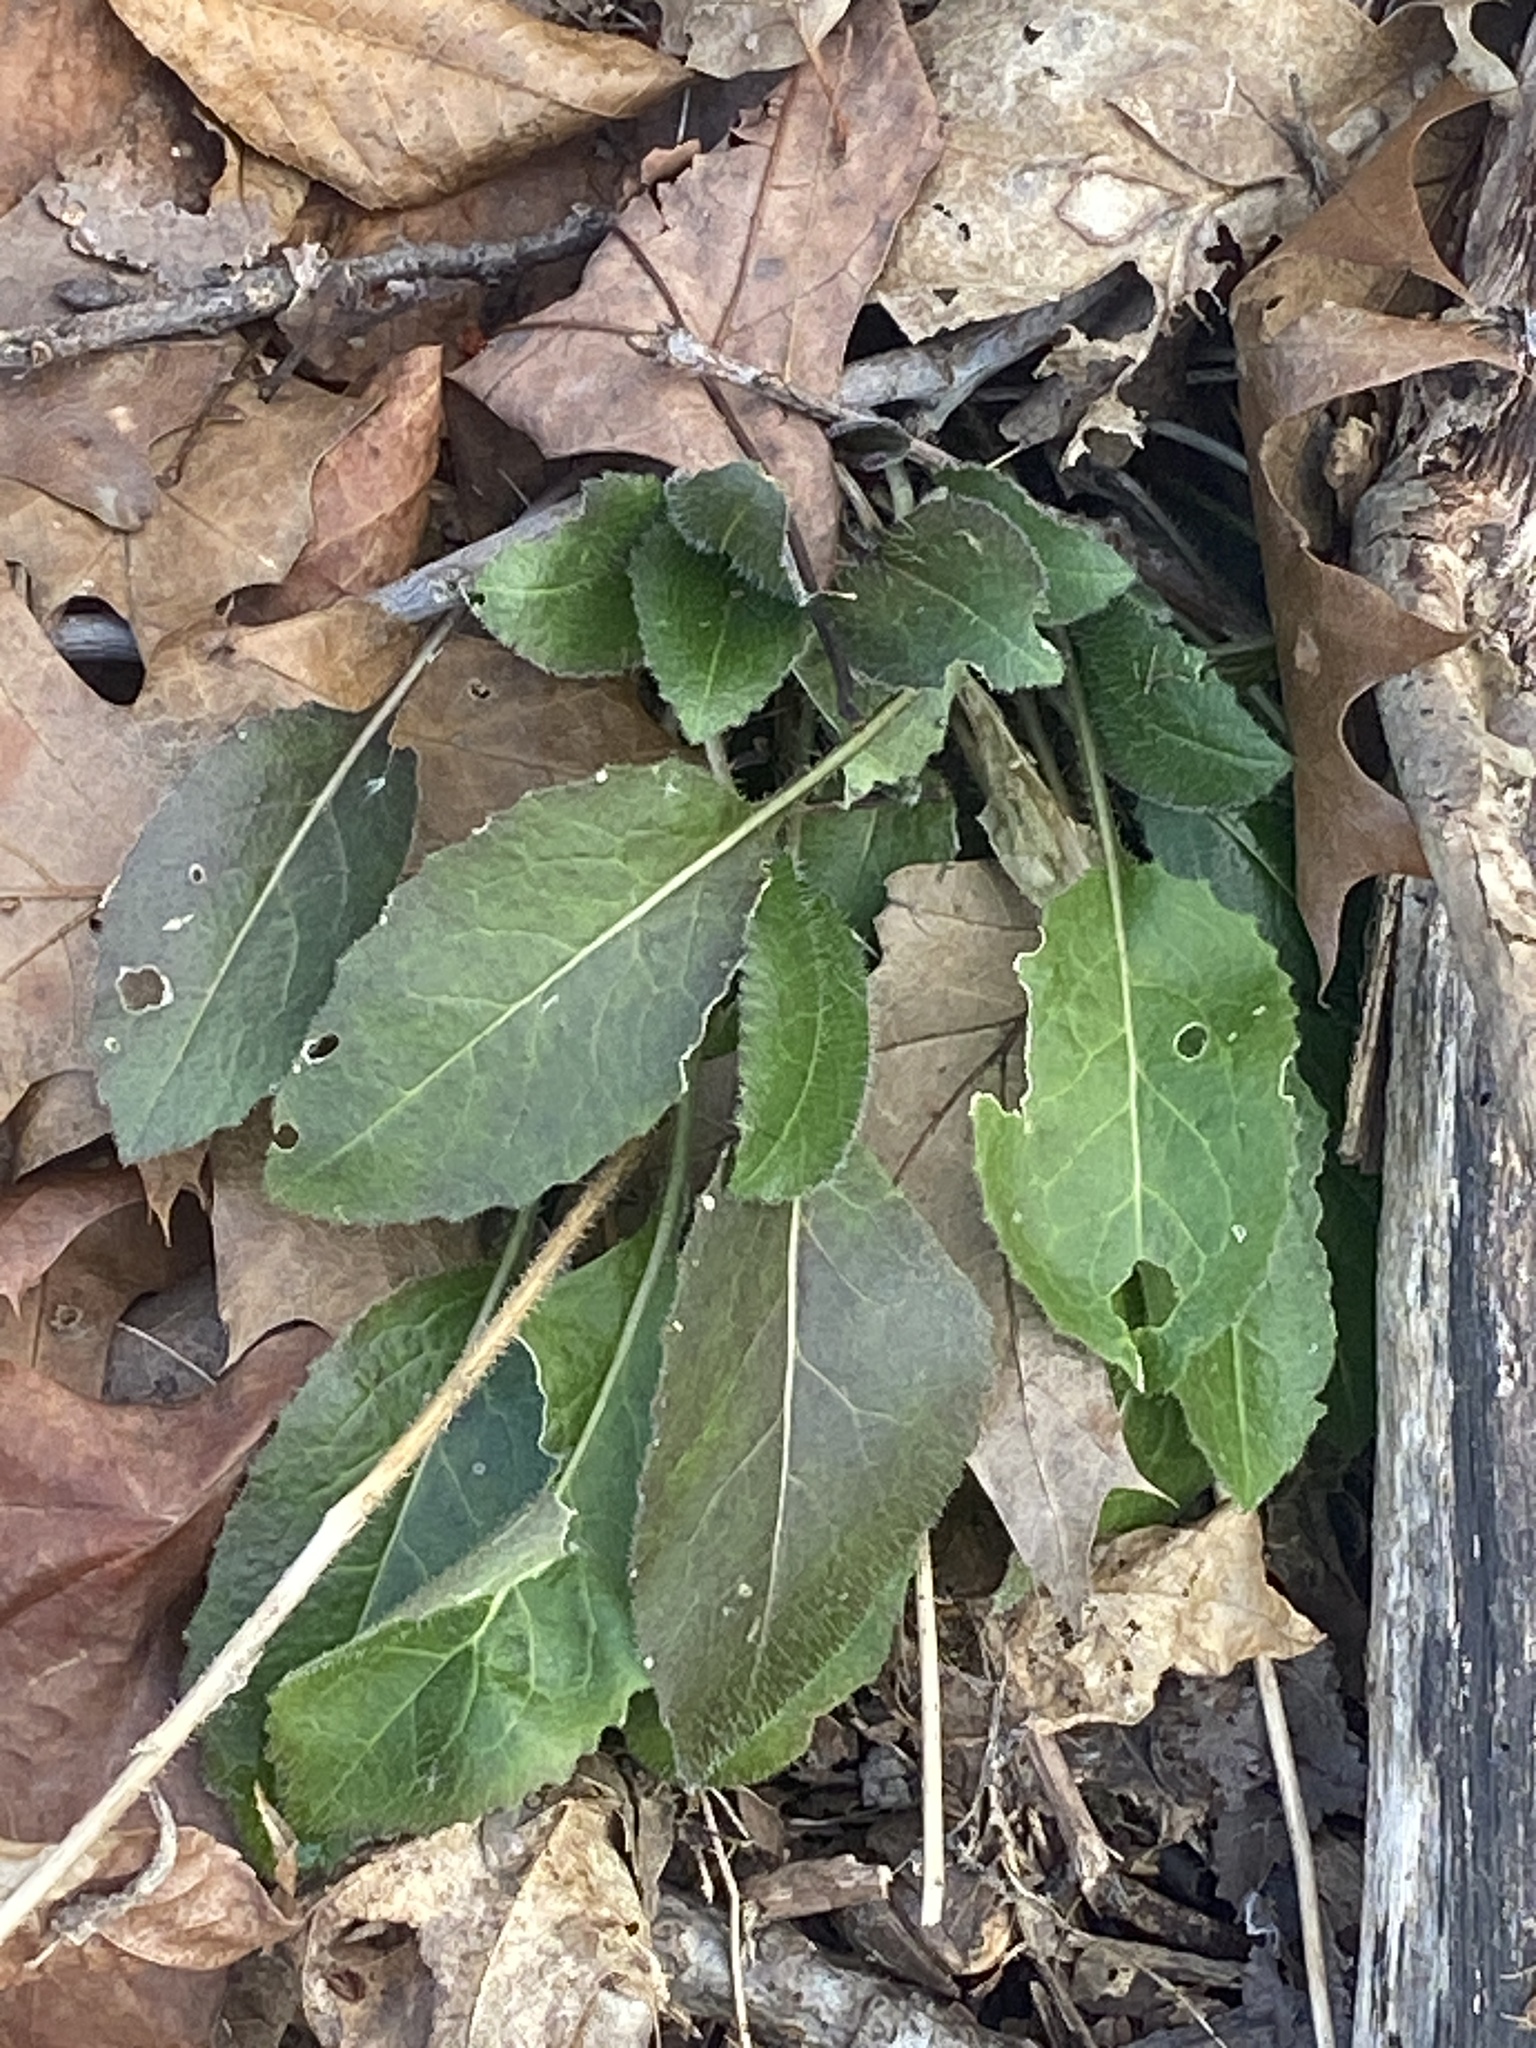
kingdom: Plantae
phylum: Tracheophyta
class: Magnoliopsida
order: Brassicales
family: Brassicaceae
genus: Hesperis
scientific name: Hesperis matronalis
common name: Dame's-violet
